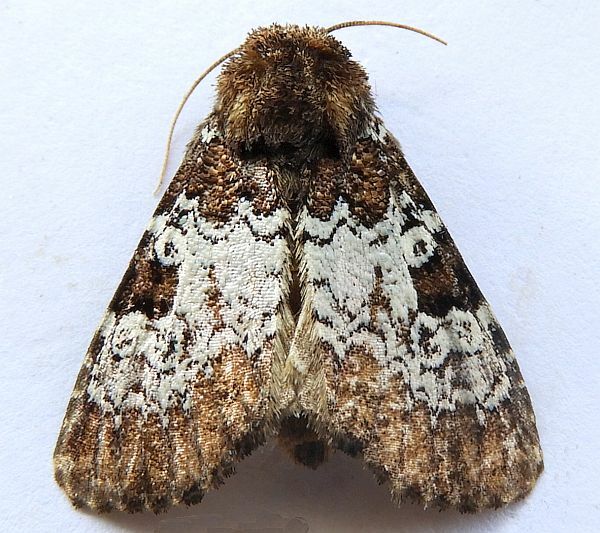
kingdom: Animalia
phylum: Arthropoda
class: Insecta
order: Lepidoptera
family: Noctuidae
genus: Euamiana
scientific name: Euamiana contrasta
